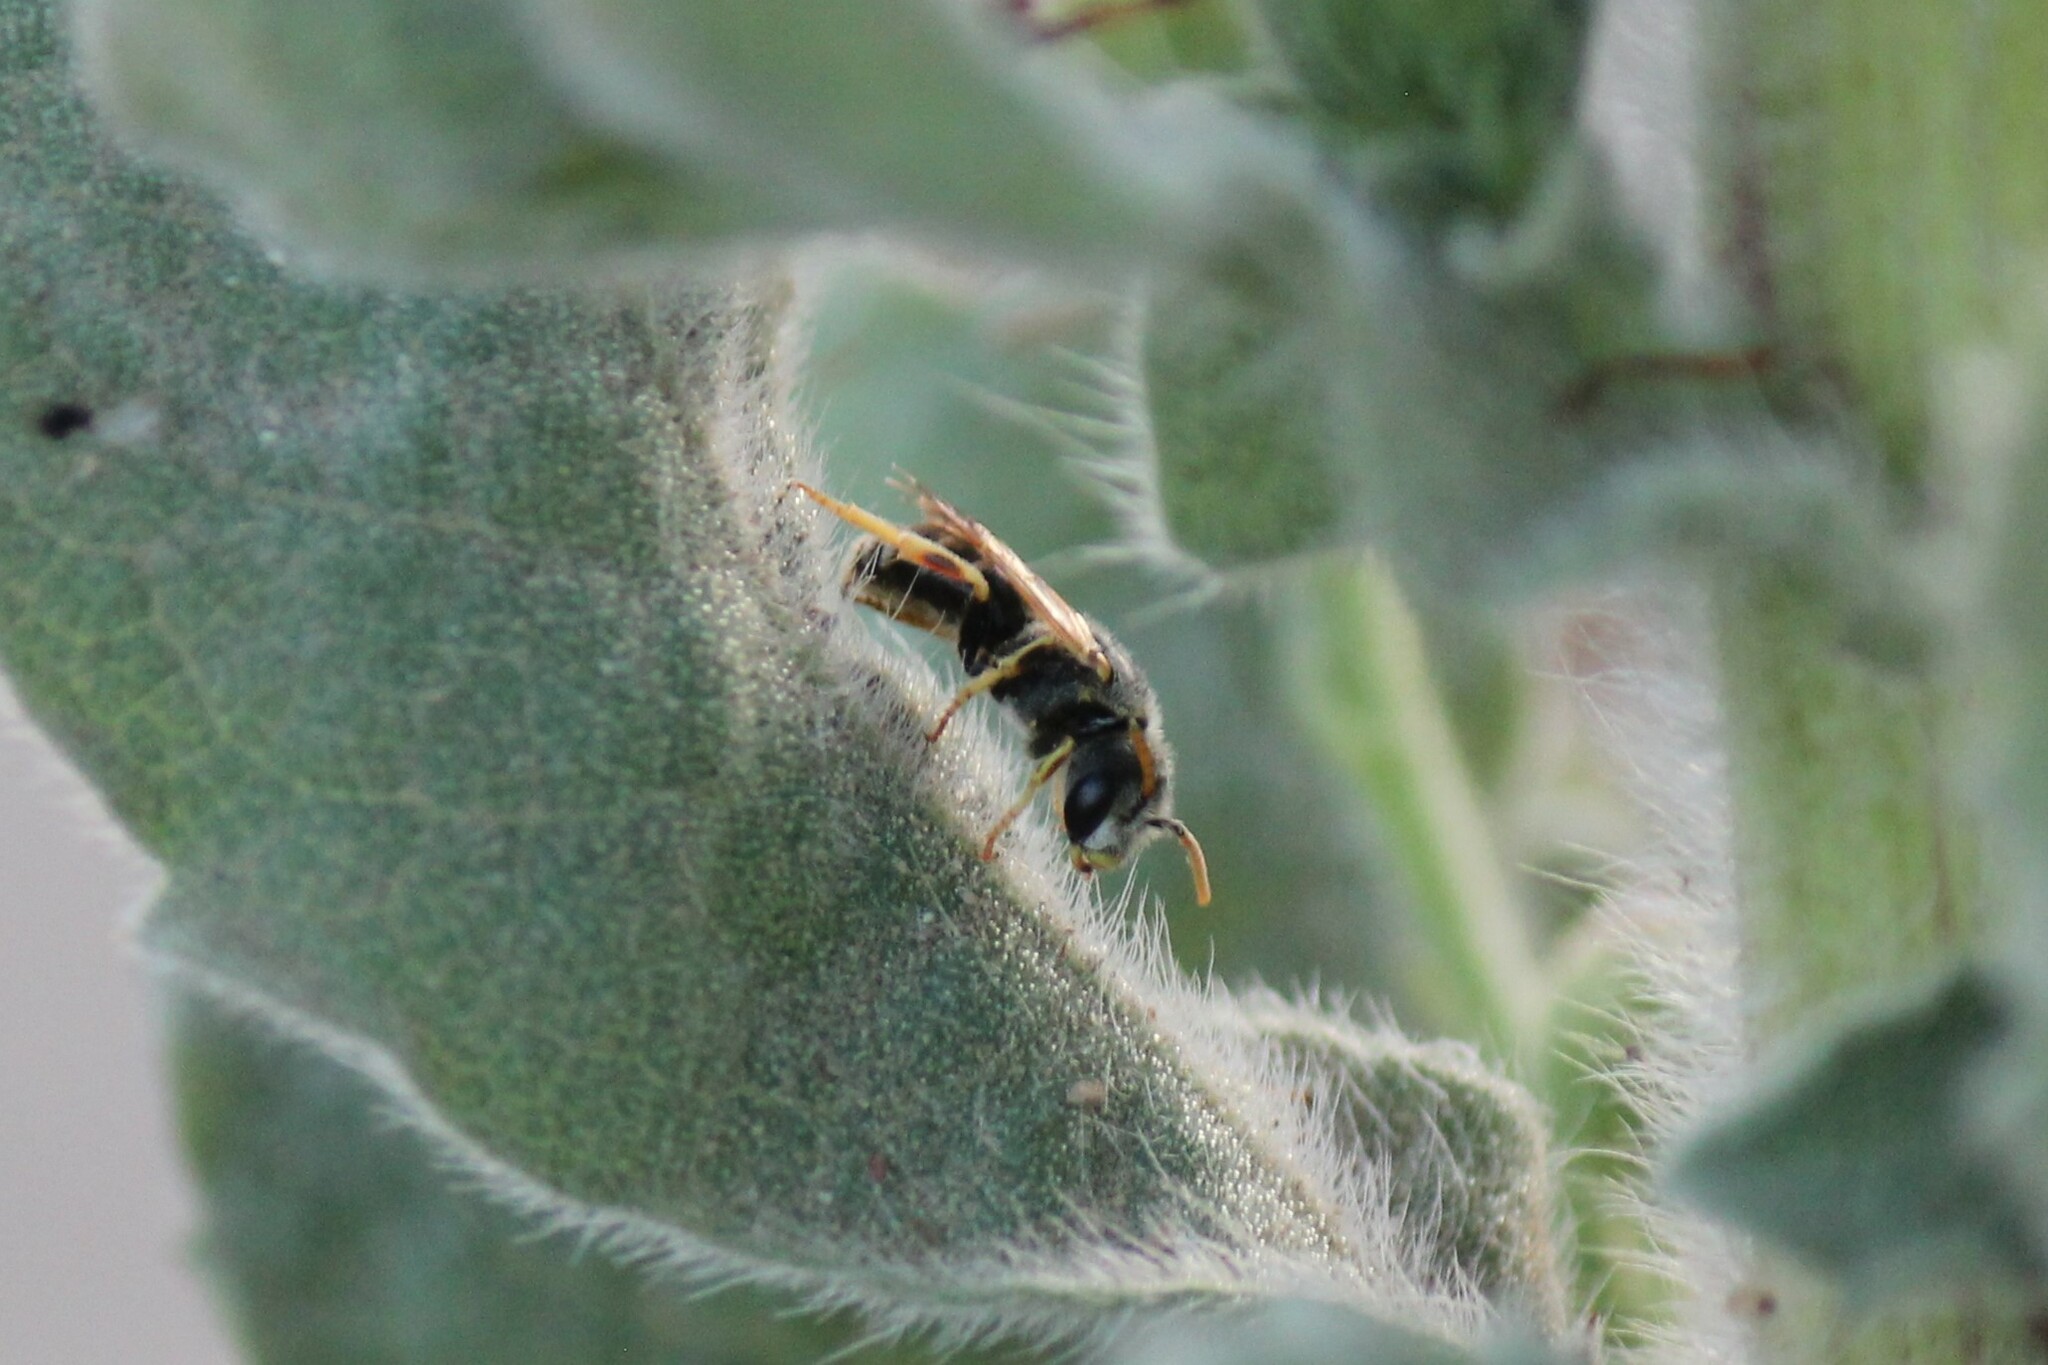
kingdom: Animalia
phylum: Arthropoda
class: Insecta
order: Hymenoptera
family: Halictidae
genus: Halictus
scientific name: Halictus ligatus
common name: Ligated furrow bee
